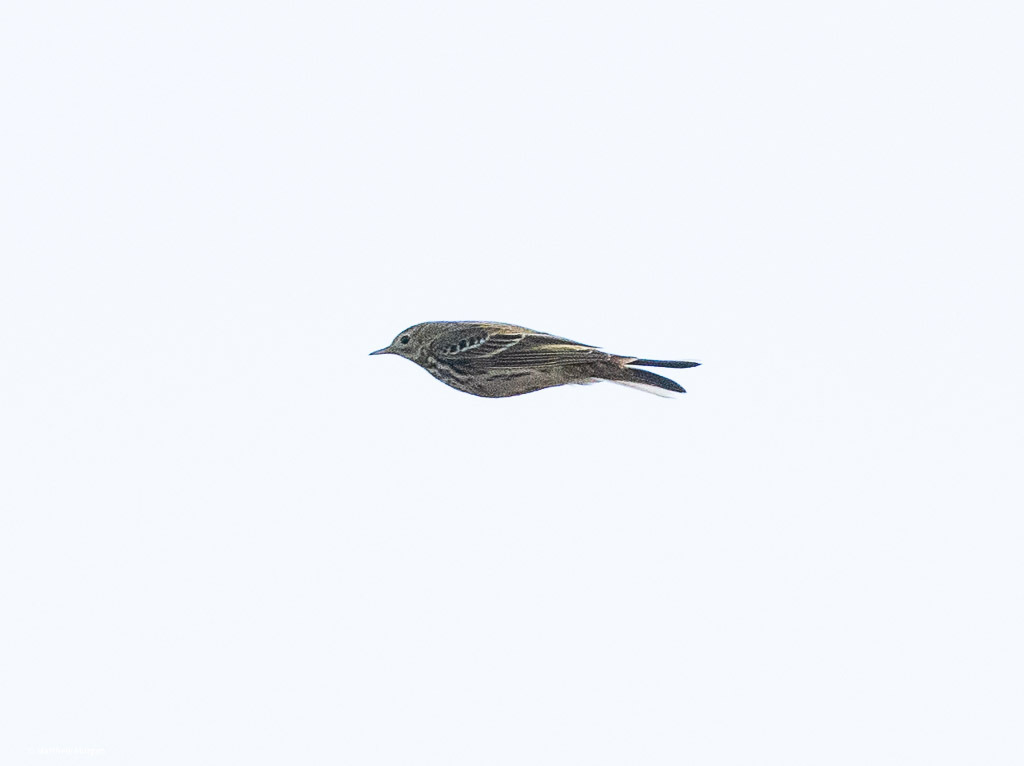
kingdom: Animalia
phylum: Chordata
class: Aves
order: Passeriformes
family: Motacillidae
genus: Anthus
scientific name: Anthus pratensis
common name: Meadow pipit
